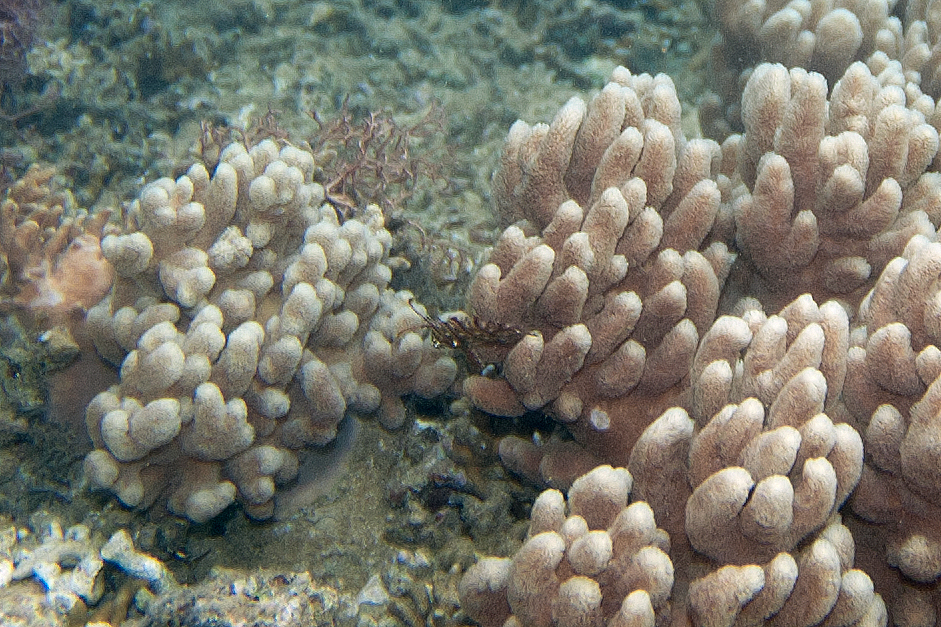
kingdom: Animalia
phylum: Chordata
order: Perciformes
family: Labridae
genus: Novaculichthys
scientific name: Novaculichthys taeniourus
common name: Rockmover wrasse
